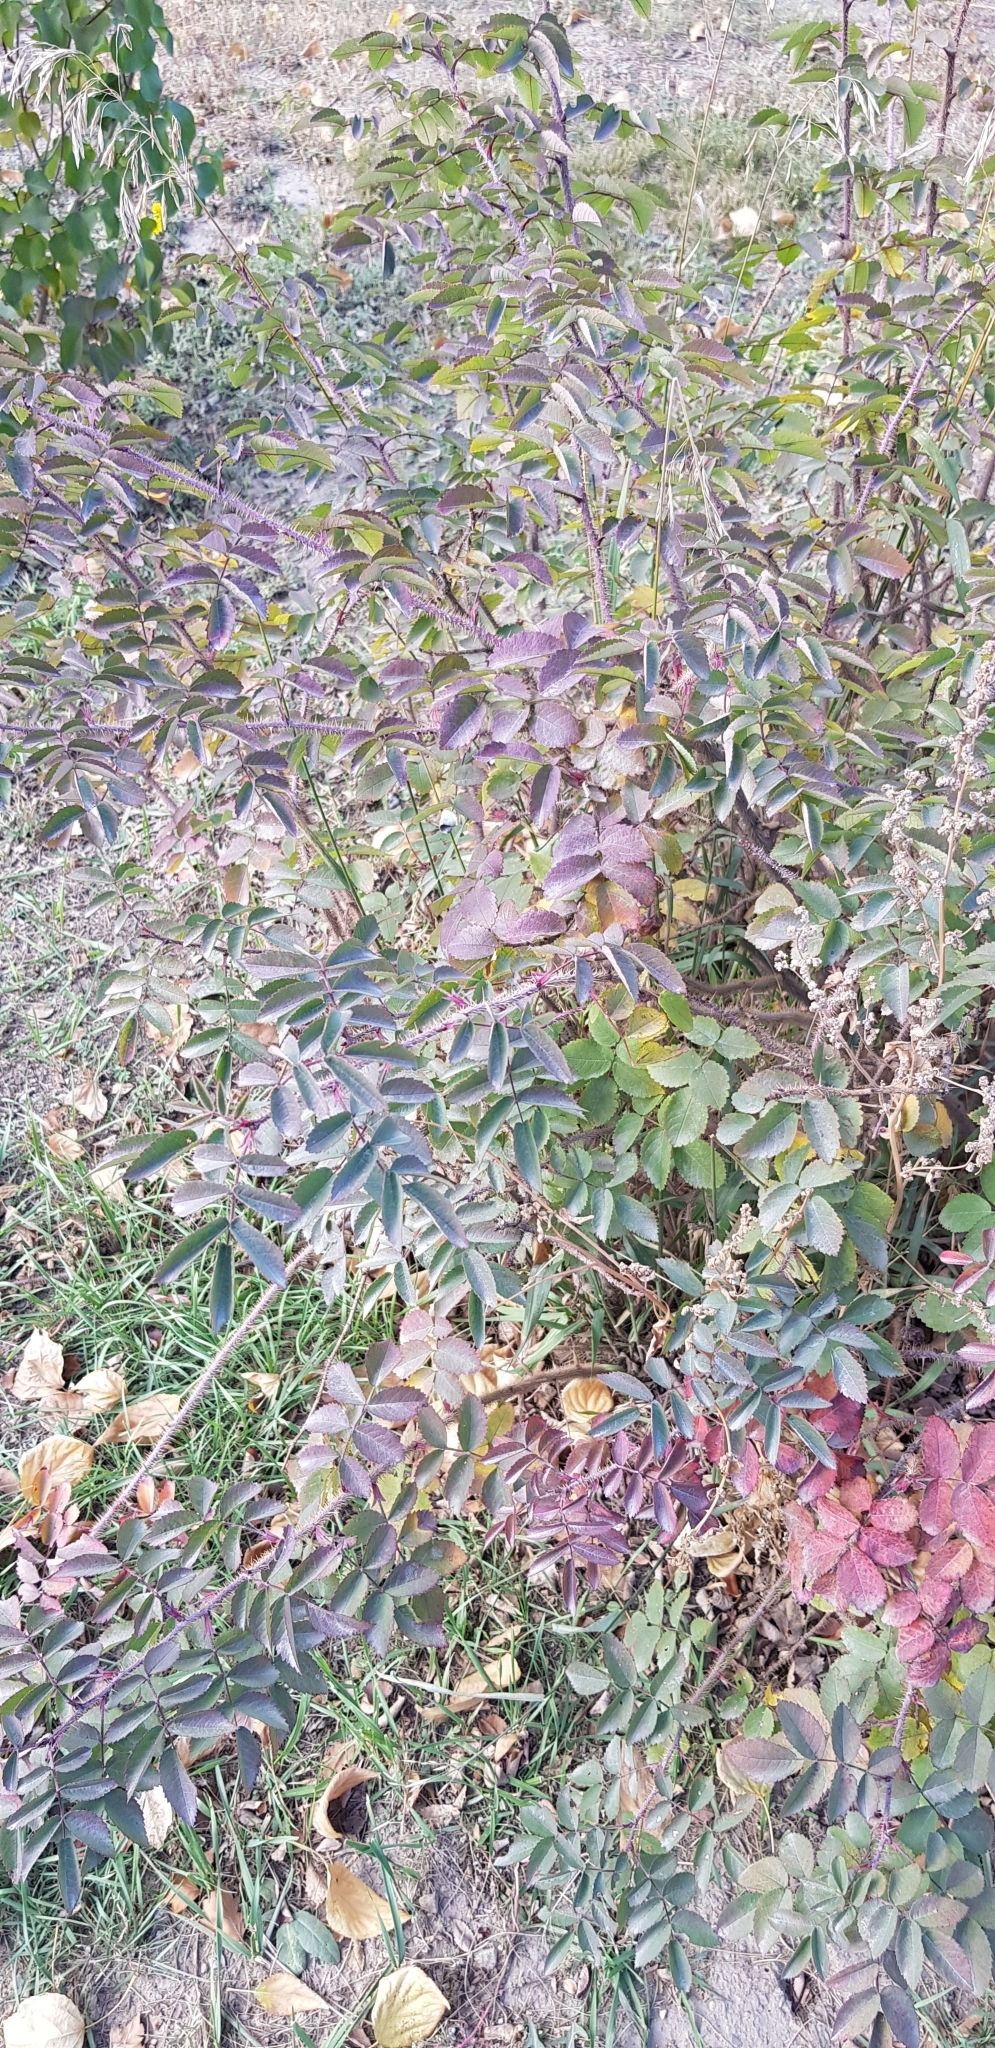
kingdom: Plantae
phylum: Tracheophyta
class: Magnoliopsida
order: Rosales
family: Rosaceae
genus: Rosa
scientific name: Rosa acicularis
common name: Prickly rose
